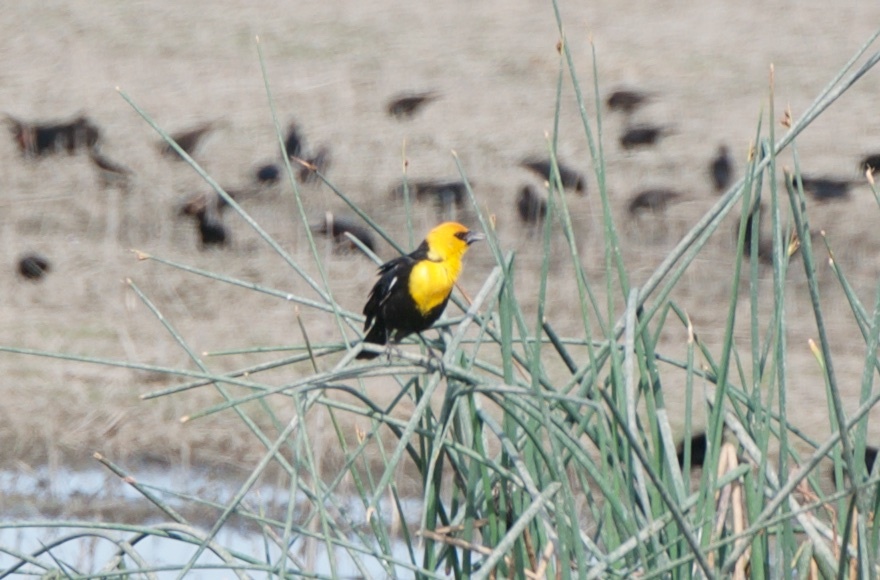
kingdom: Animalia
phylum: Chordata
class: Aves
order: Passeriformes
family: Icteridae
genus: Xanthocephalus
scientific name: Xanthocephalus xanthocephalus
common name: Yellow-headed blackbird
